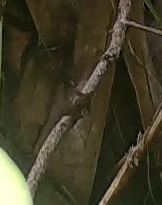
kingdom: Animalia
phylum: Chordata
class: Squamata
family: Dactyloidae
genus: Anolis
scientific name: Anolis
